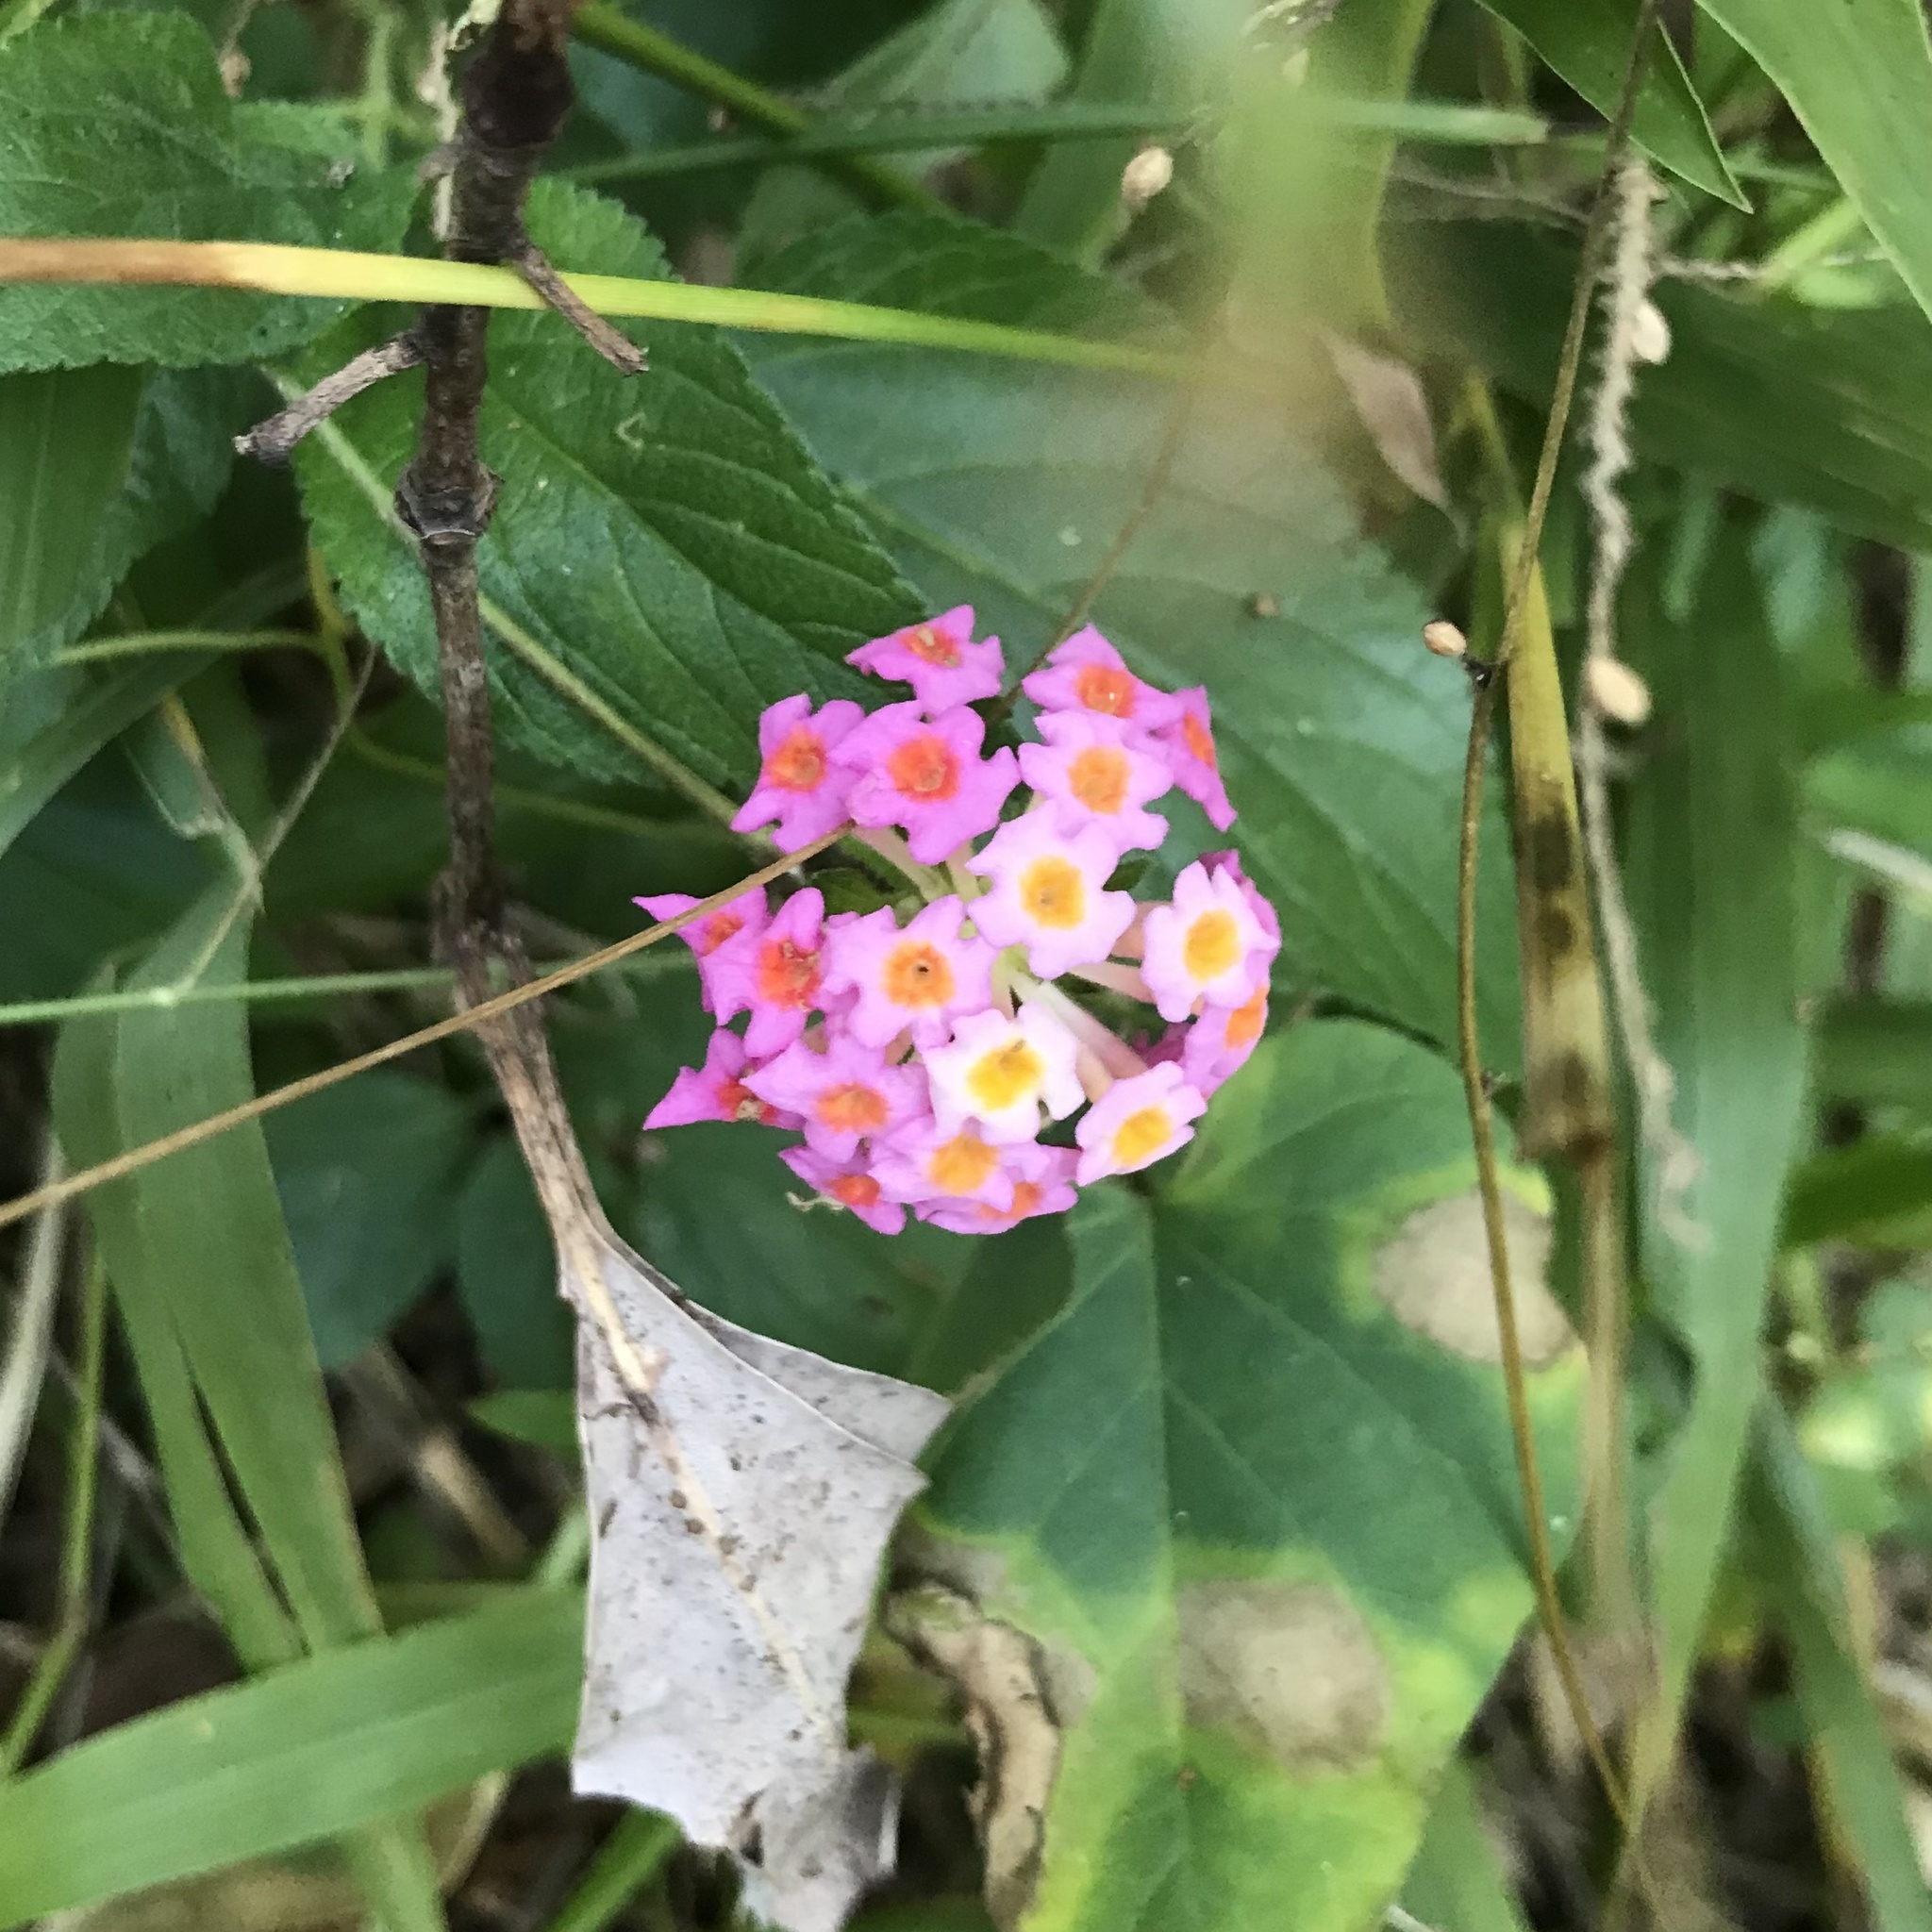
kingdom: Plantae
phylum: Tracheophyta
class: Magnoliopsida
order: Lamiales
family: Verbenaceae
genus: Lantana
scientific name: Lantana camara
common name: Lantana
